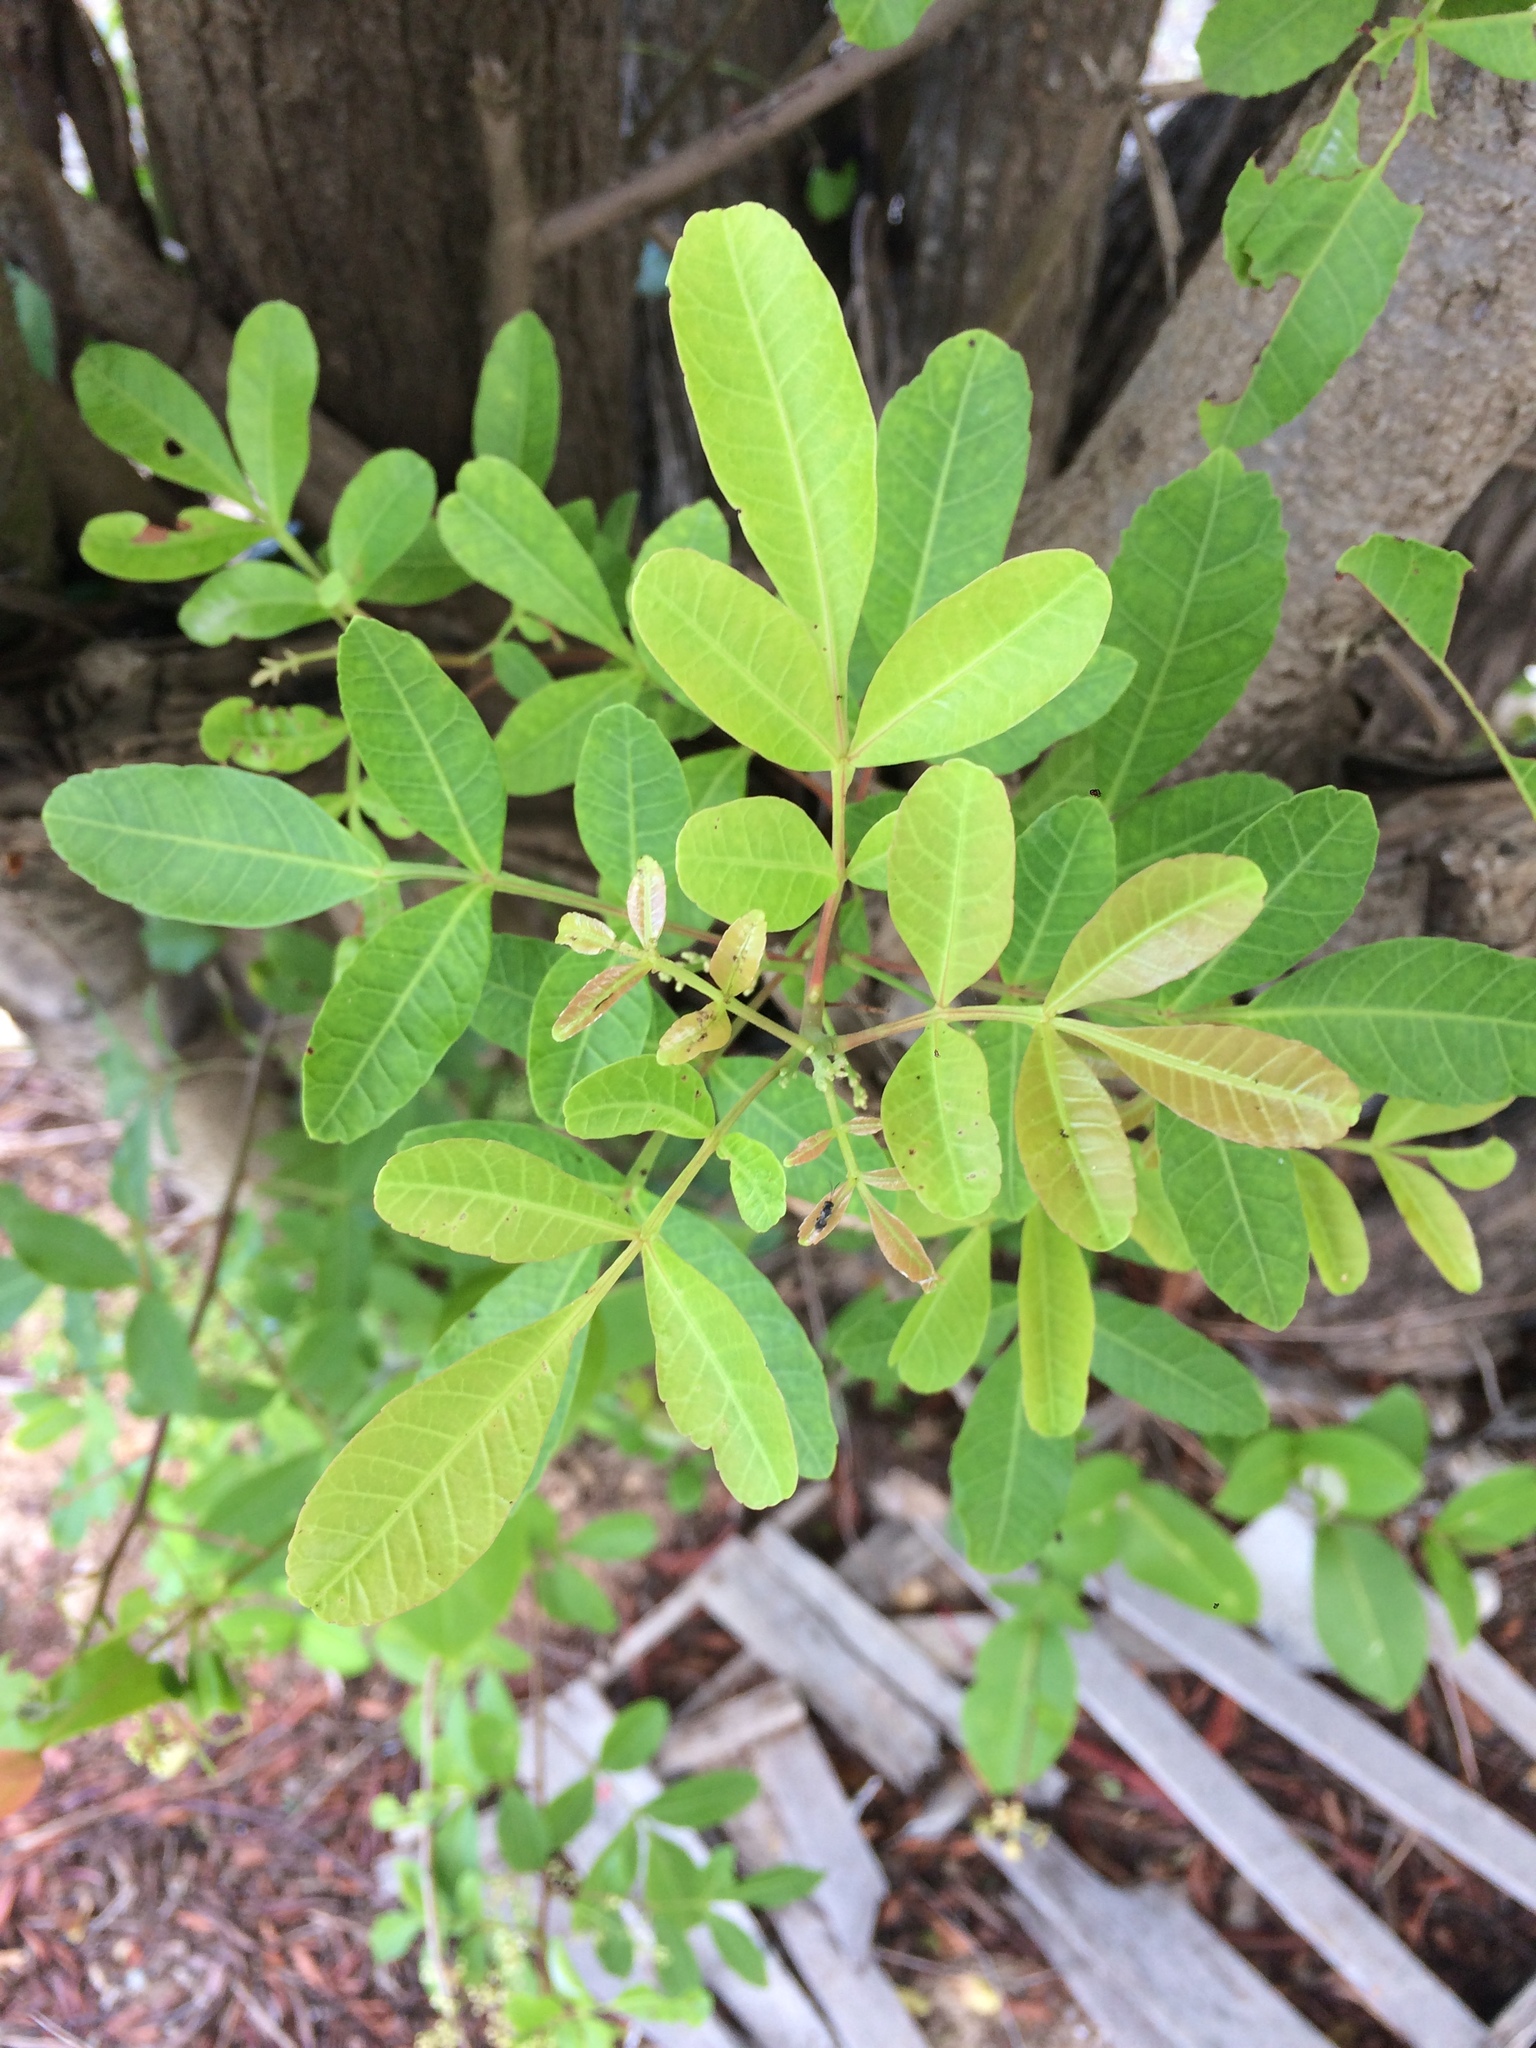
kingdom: Plantae
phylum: Tracheophyta
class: Magnoliopsida
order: Sapindales
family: Anacardiaceae
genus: Schinus
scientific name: Schinus terebinthifolia
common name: Brazilian peppertree
